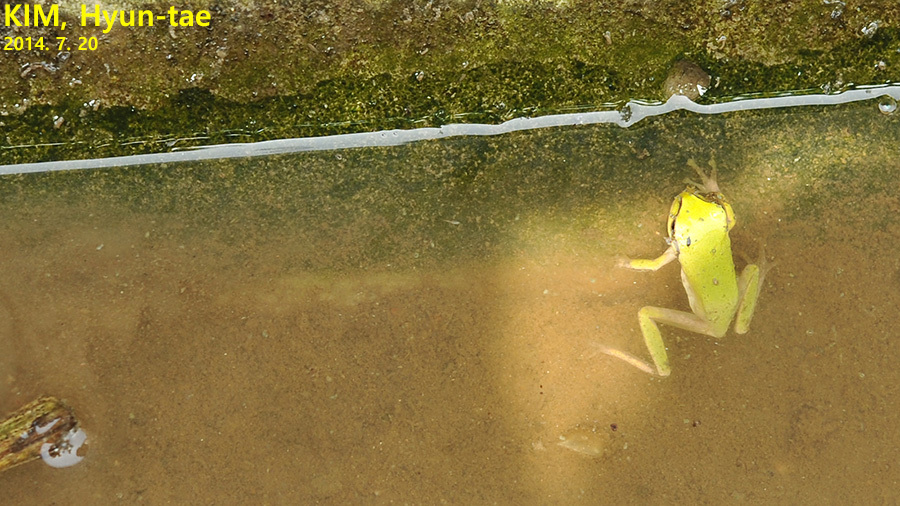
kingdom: Animalia
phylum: Chordata
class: Amphibia
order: Anura
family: Hylidae
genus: Hyla
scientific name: Hyla
